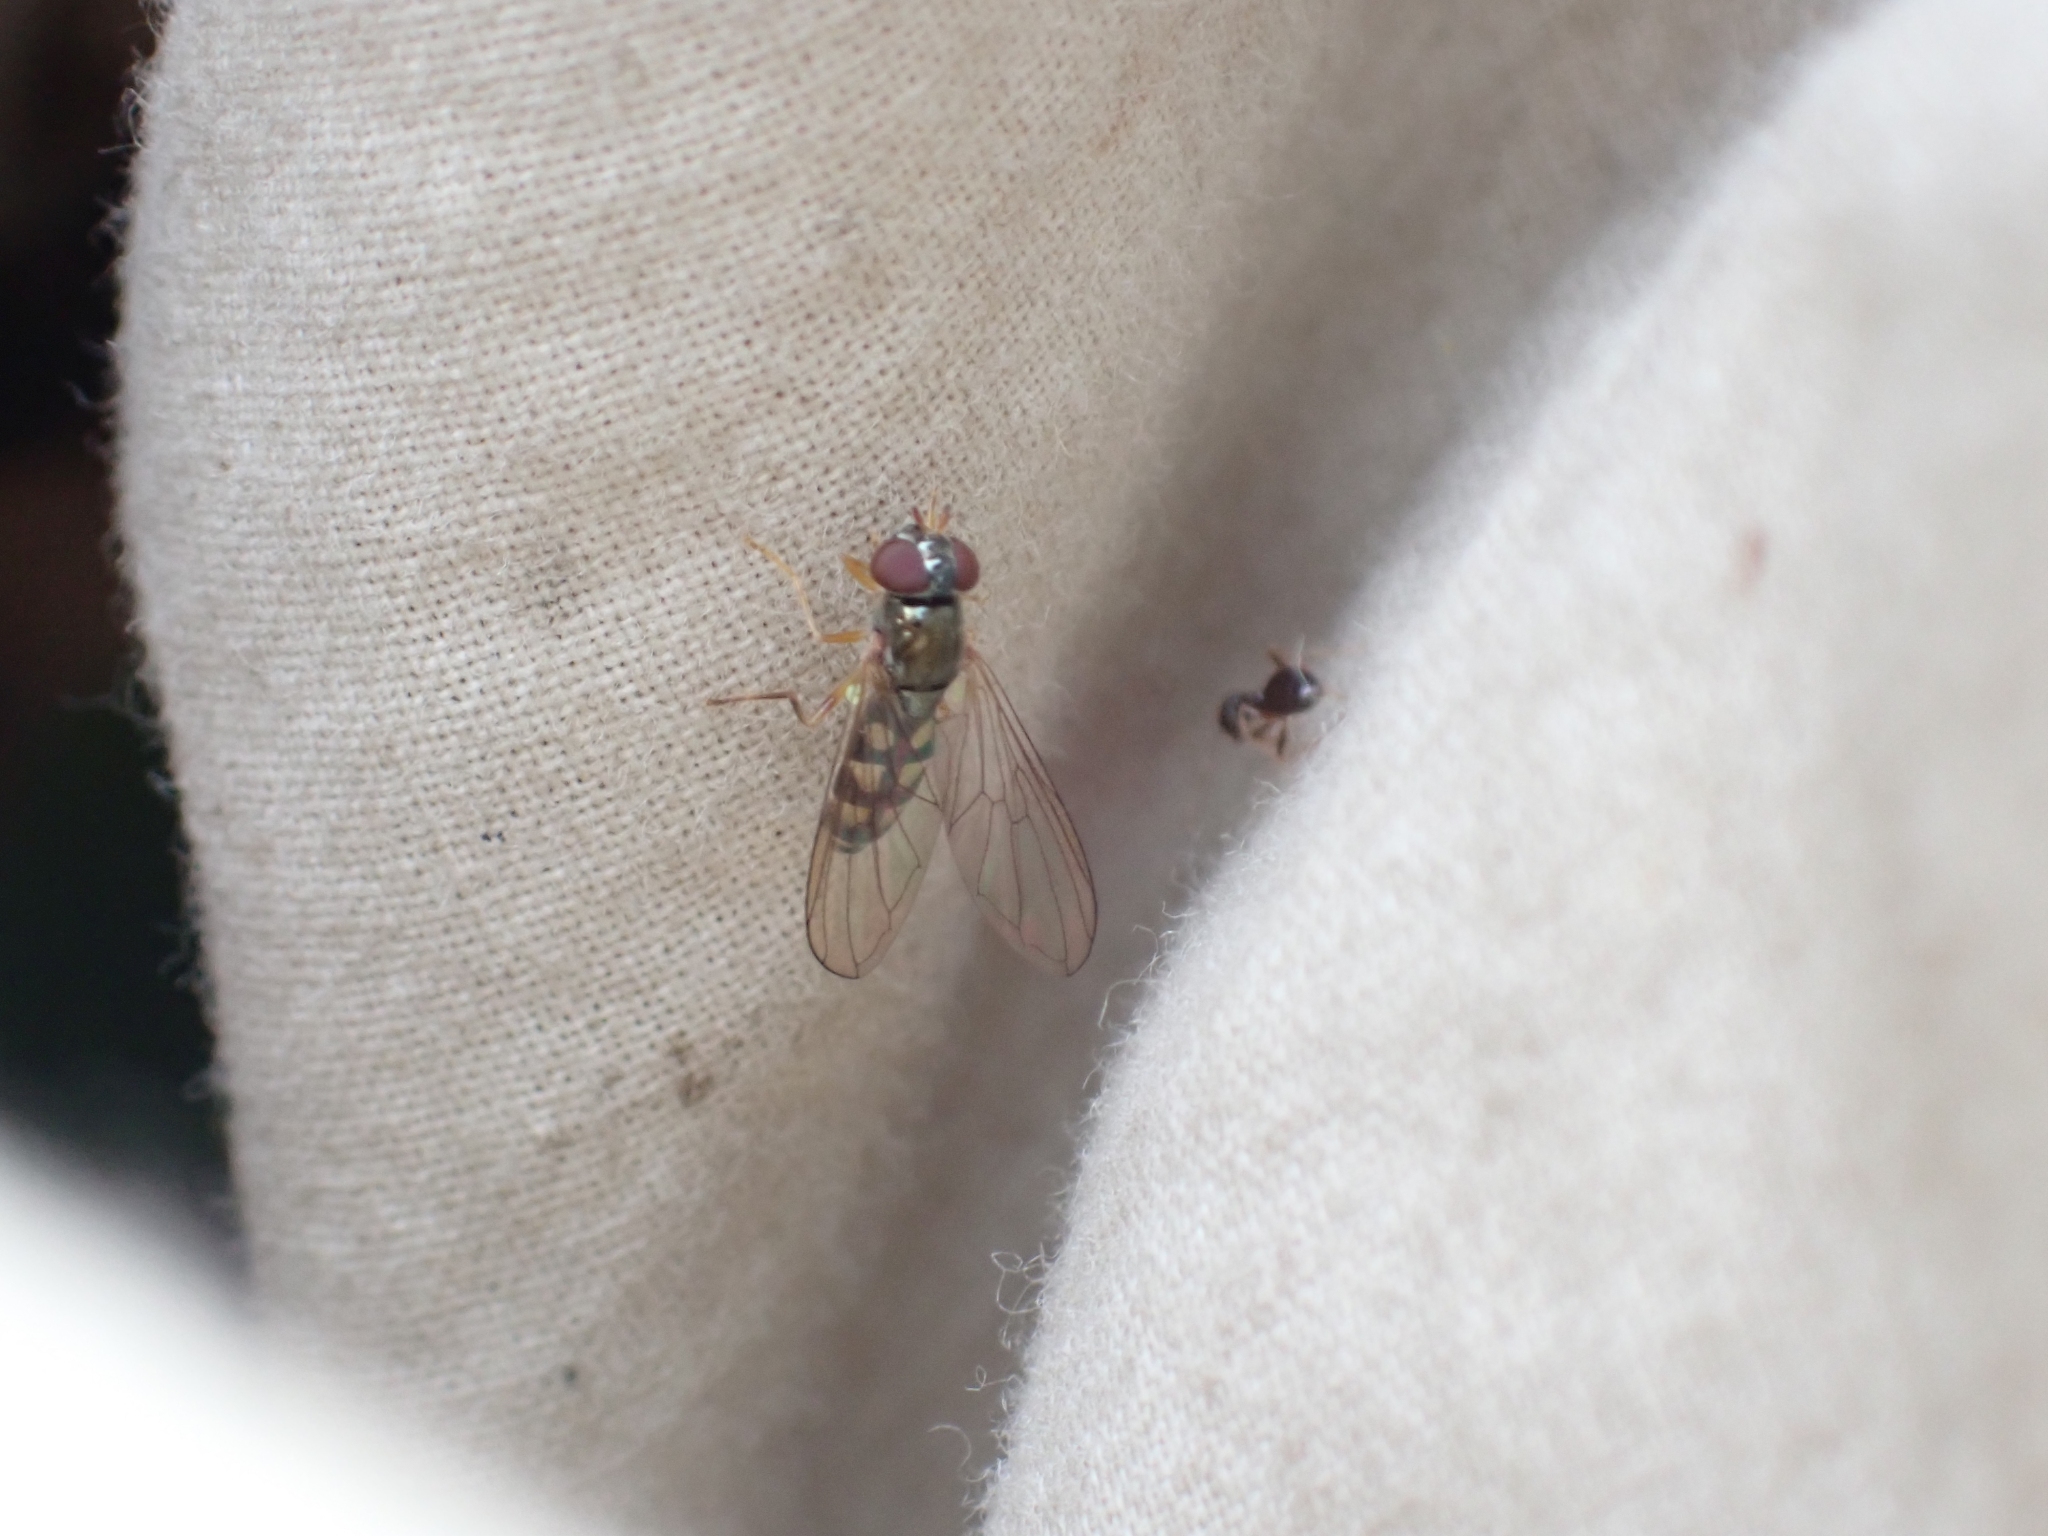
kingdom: Animalia
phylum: Arthropoda
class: Insecta
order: Diptera
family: Syrphidae
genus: Melanostoma
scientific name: Melanostoma mellina
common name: Hover fly
